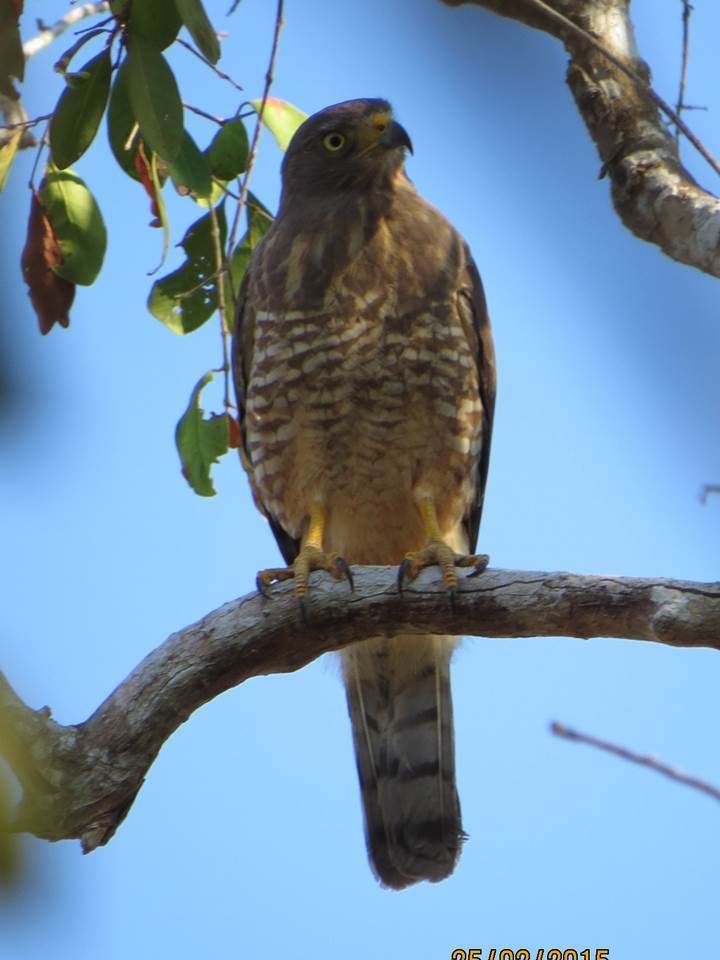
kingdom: Animalia
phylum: Chordata
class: Aves
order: Accipitriformes
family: Accipitridae
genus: Rupornis
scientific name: Rupornis magnirostris
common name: Roadside hawk
